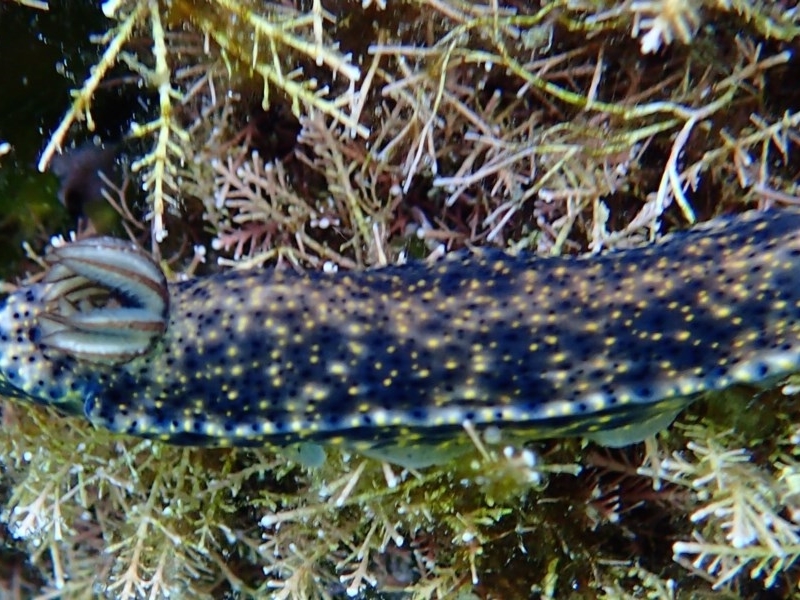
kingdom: Animalia
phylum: Mollusca
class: Gastropoda
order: Nudibranchia
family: Chromodorididae
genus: Hypselodoris
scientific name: Hypselodoris obscura
